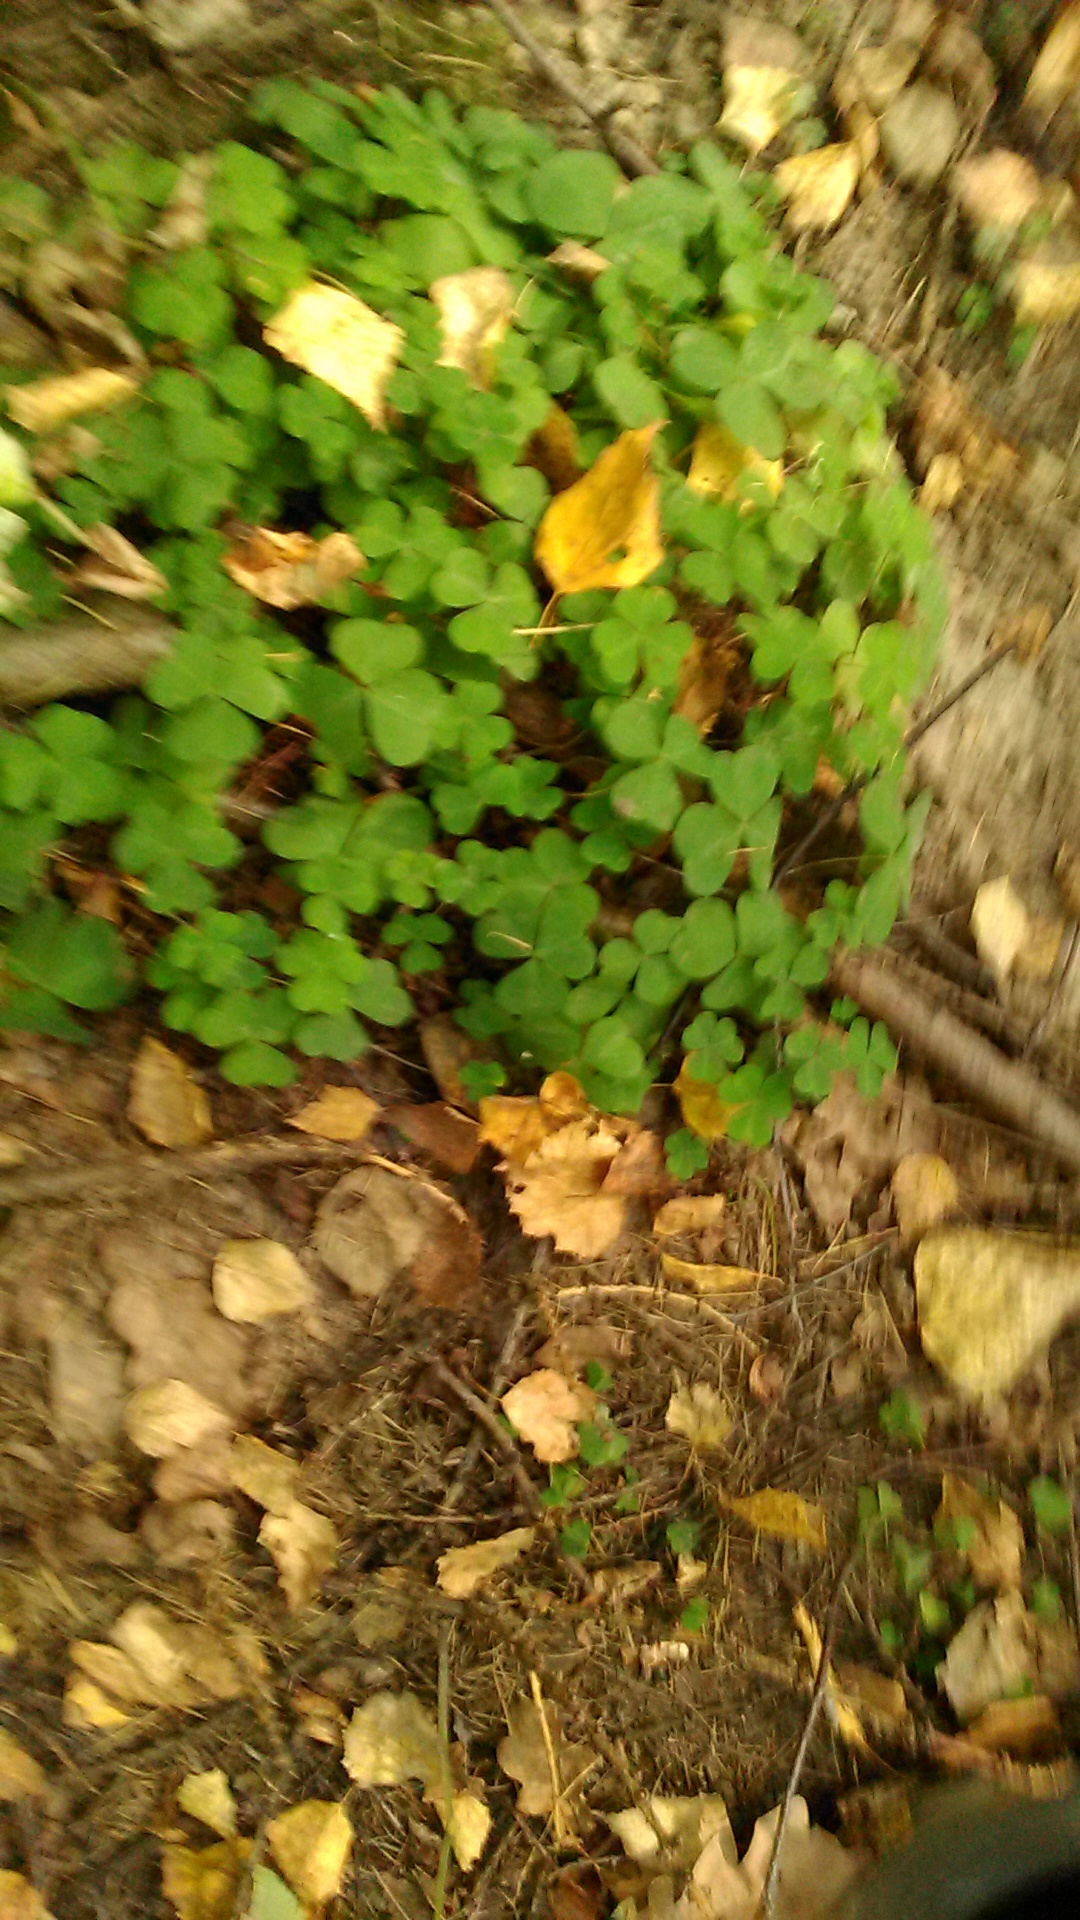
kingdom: Plantae
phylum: Tracheophyta
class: Magnoliopsida
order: Oxalidales
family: Oxalidaceae
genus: Oxalis
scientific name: Oxalis acetosella
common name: Wood-sorrel
